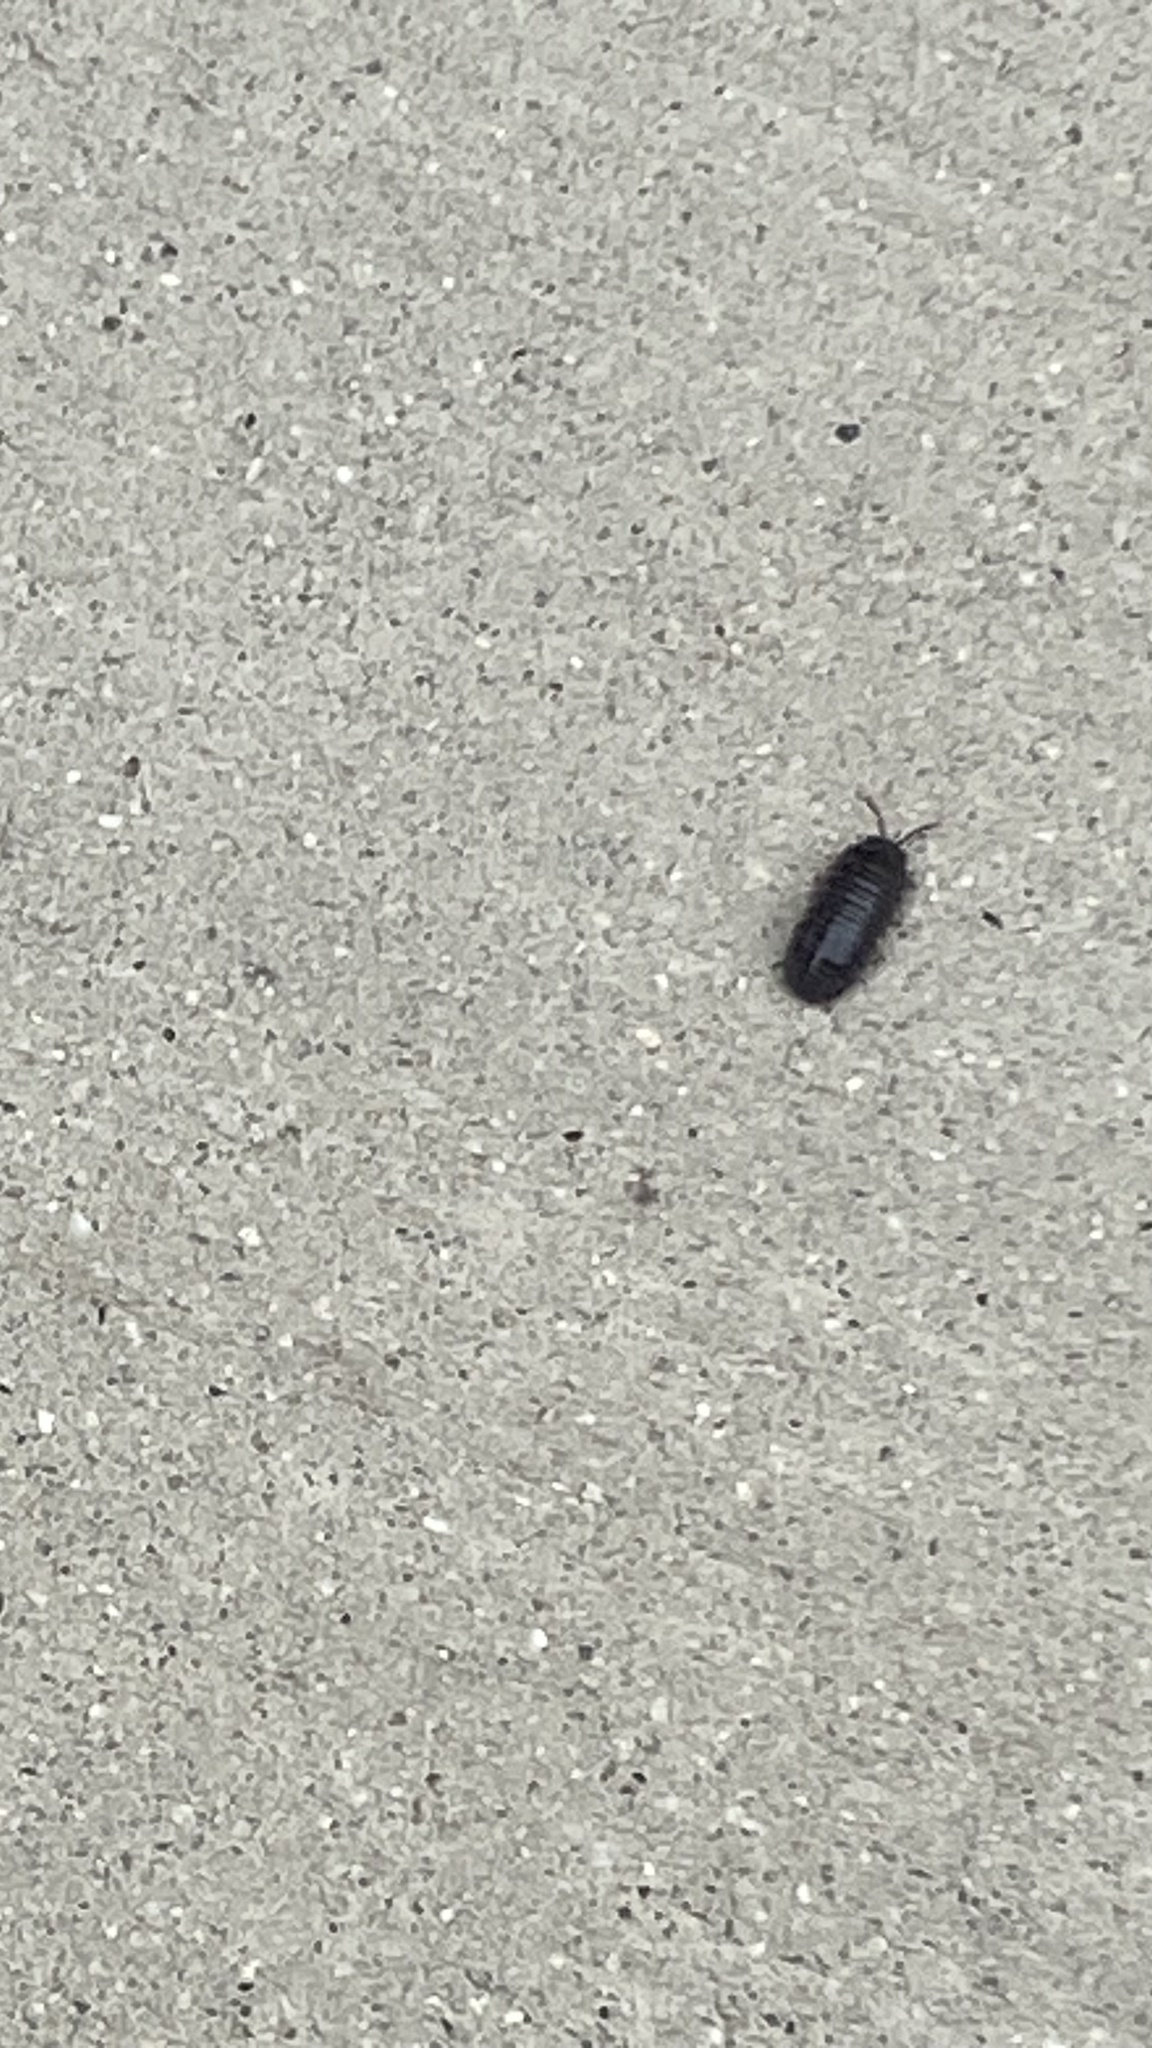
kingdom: Animalia
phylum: Arthropoda
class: Malacostraca
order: Isopoda
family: Armadillidiidae
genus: Armadillidium
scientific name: Armadillidium vulgare
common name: Common pill woodlouse
